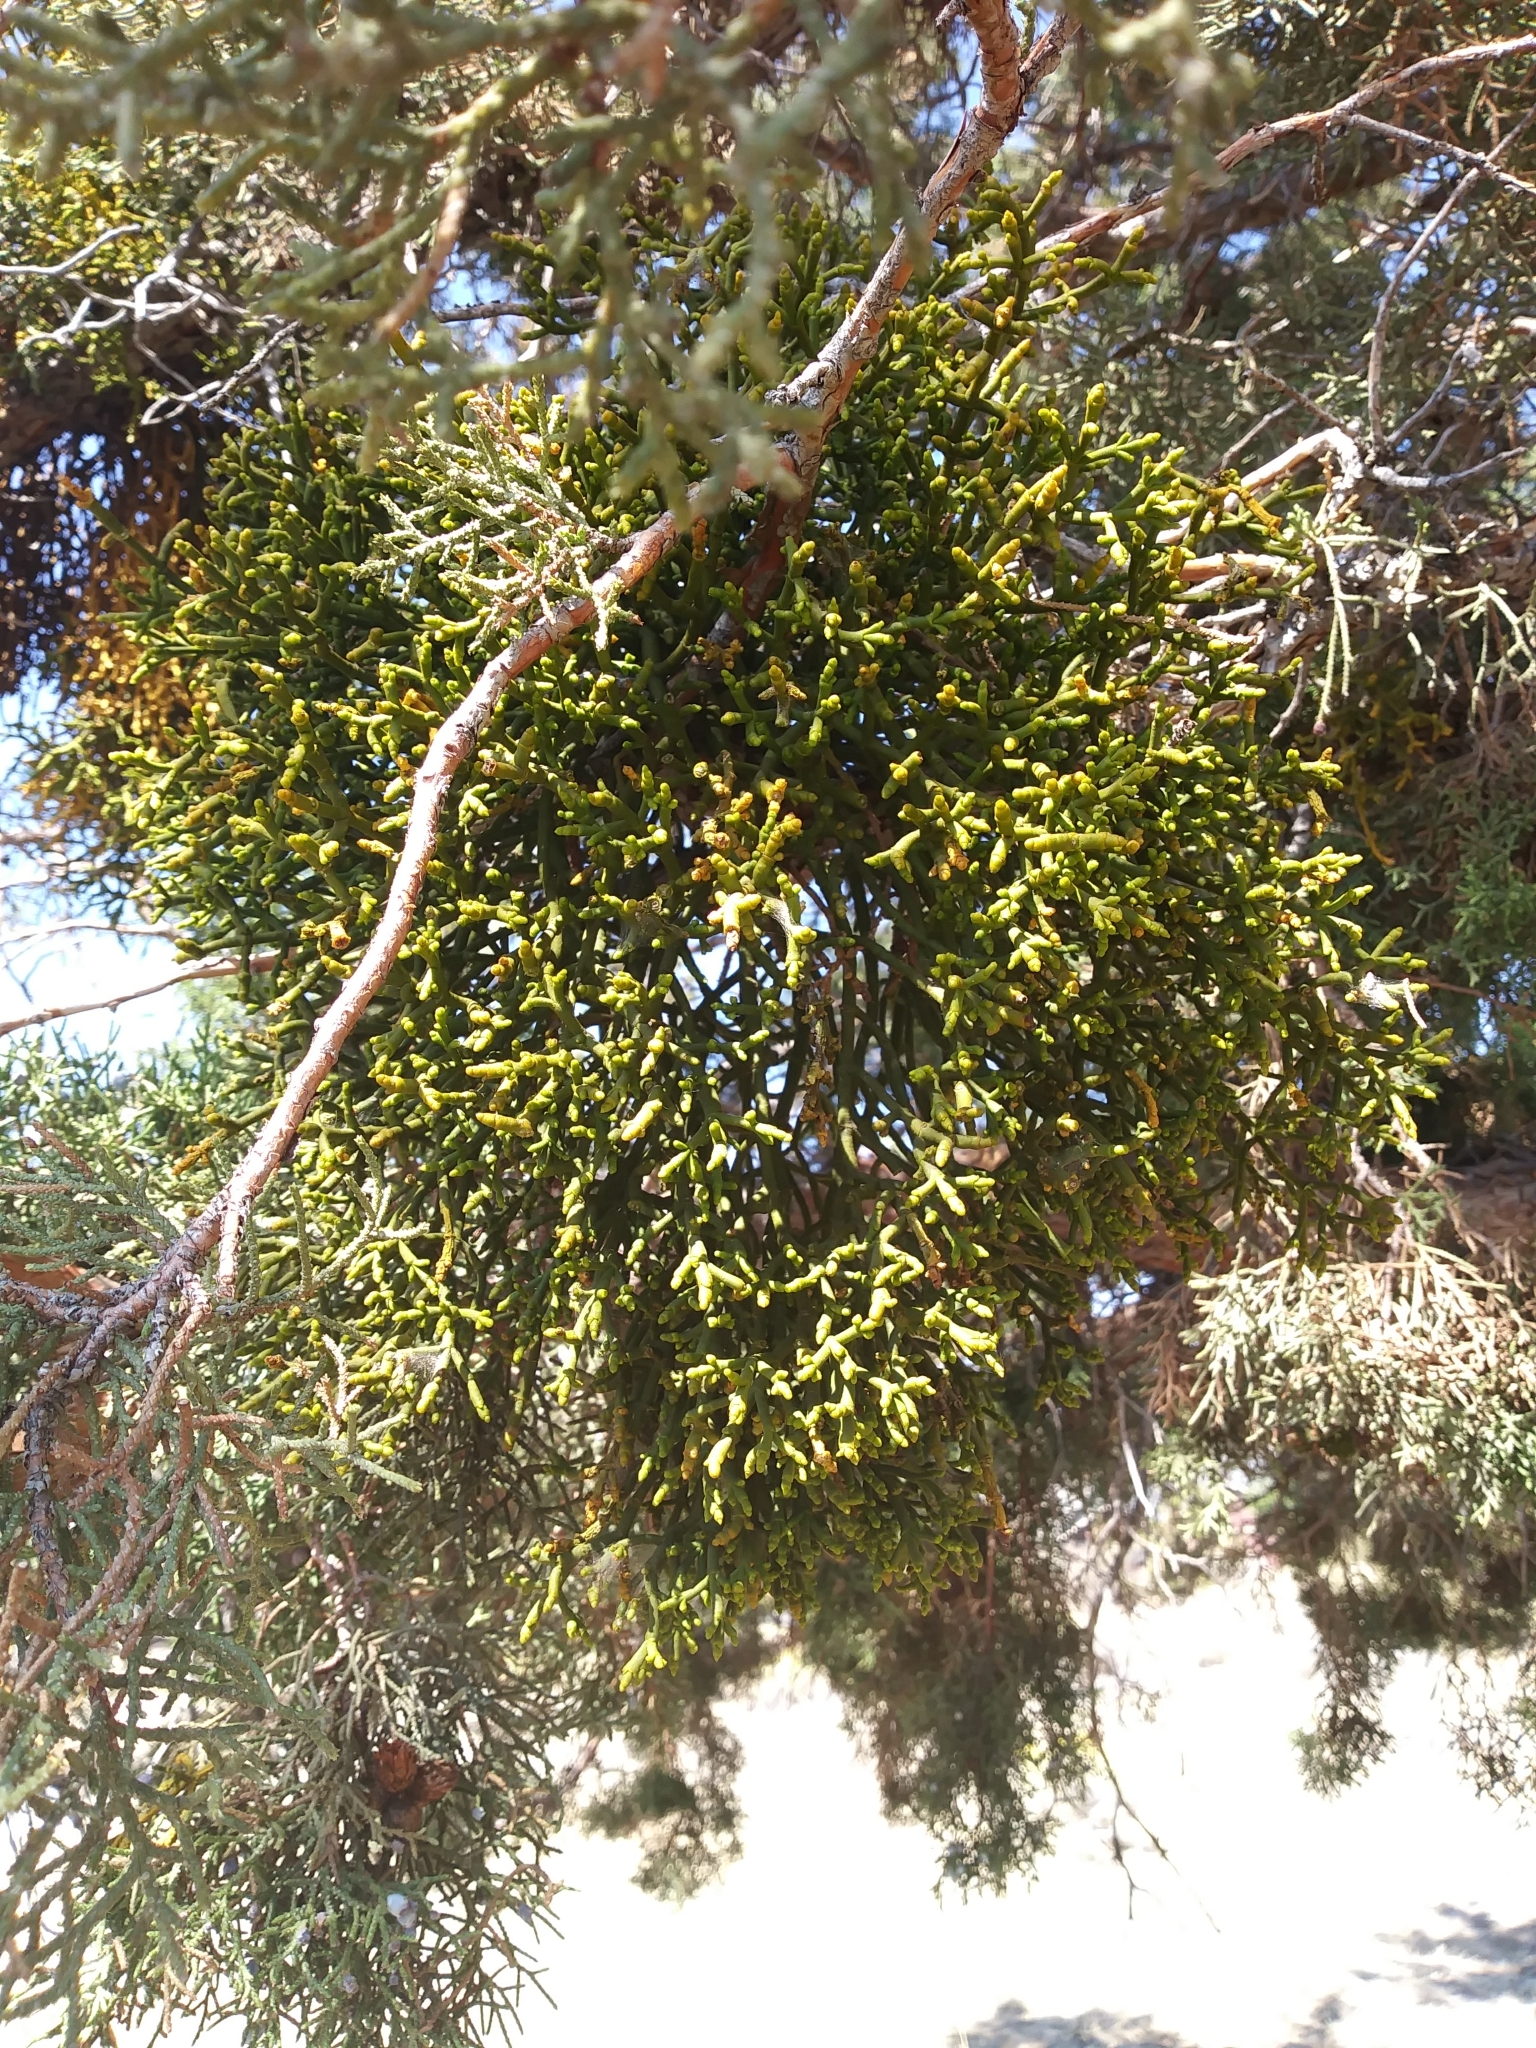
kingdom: Plantae
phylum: Tracheophyta
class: Magnoliopsida
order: Santalales
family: Viscaceae
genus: Phoradendron
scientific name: Phoradendron juniperinum
